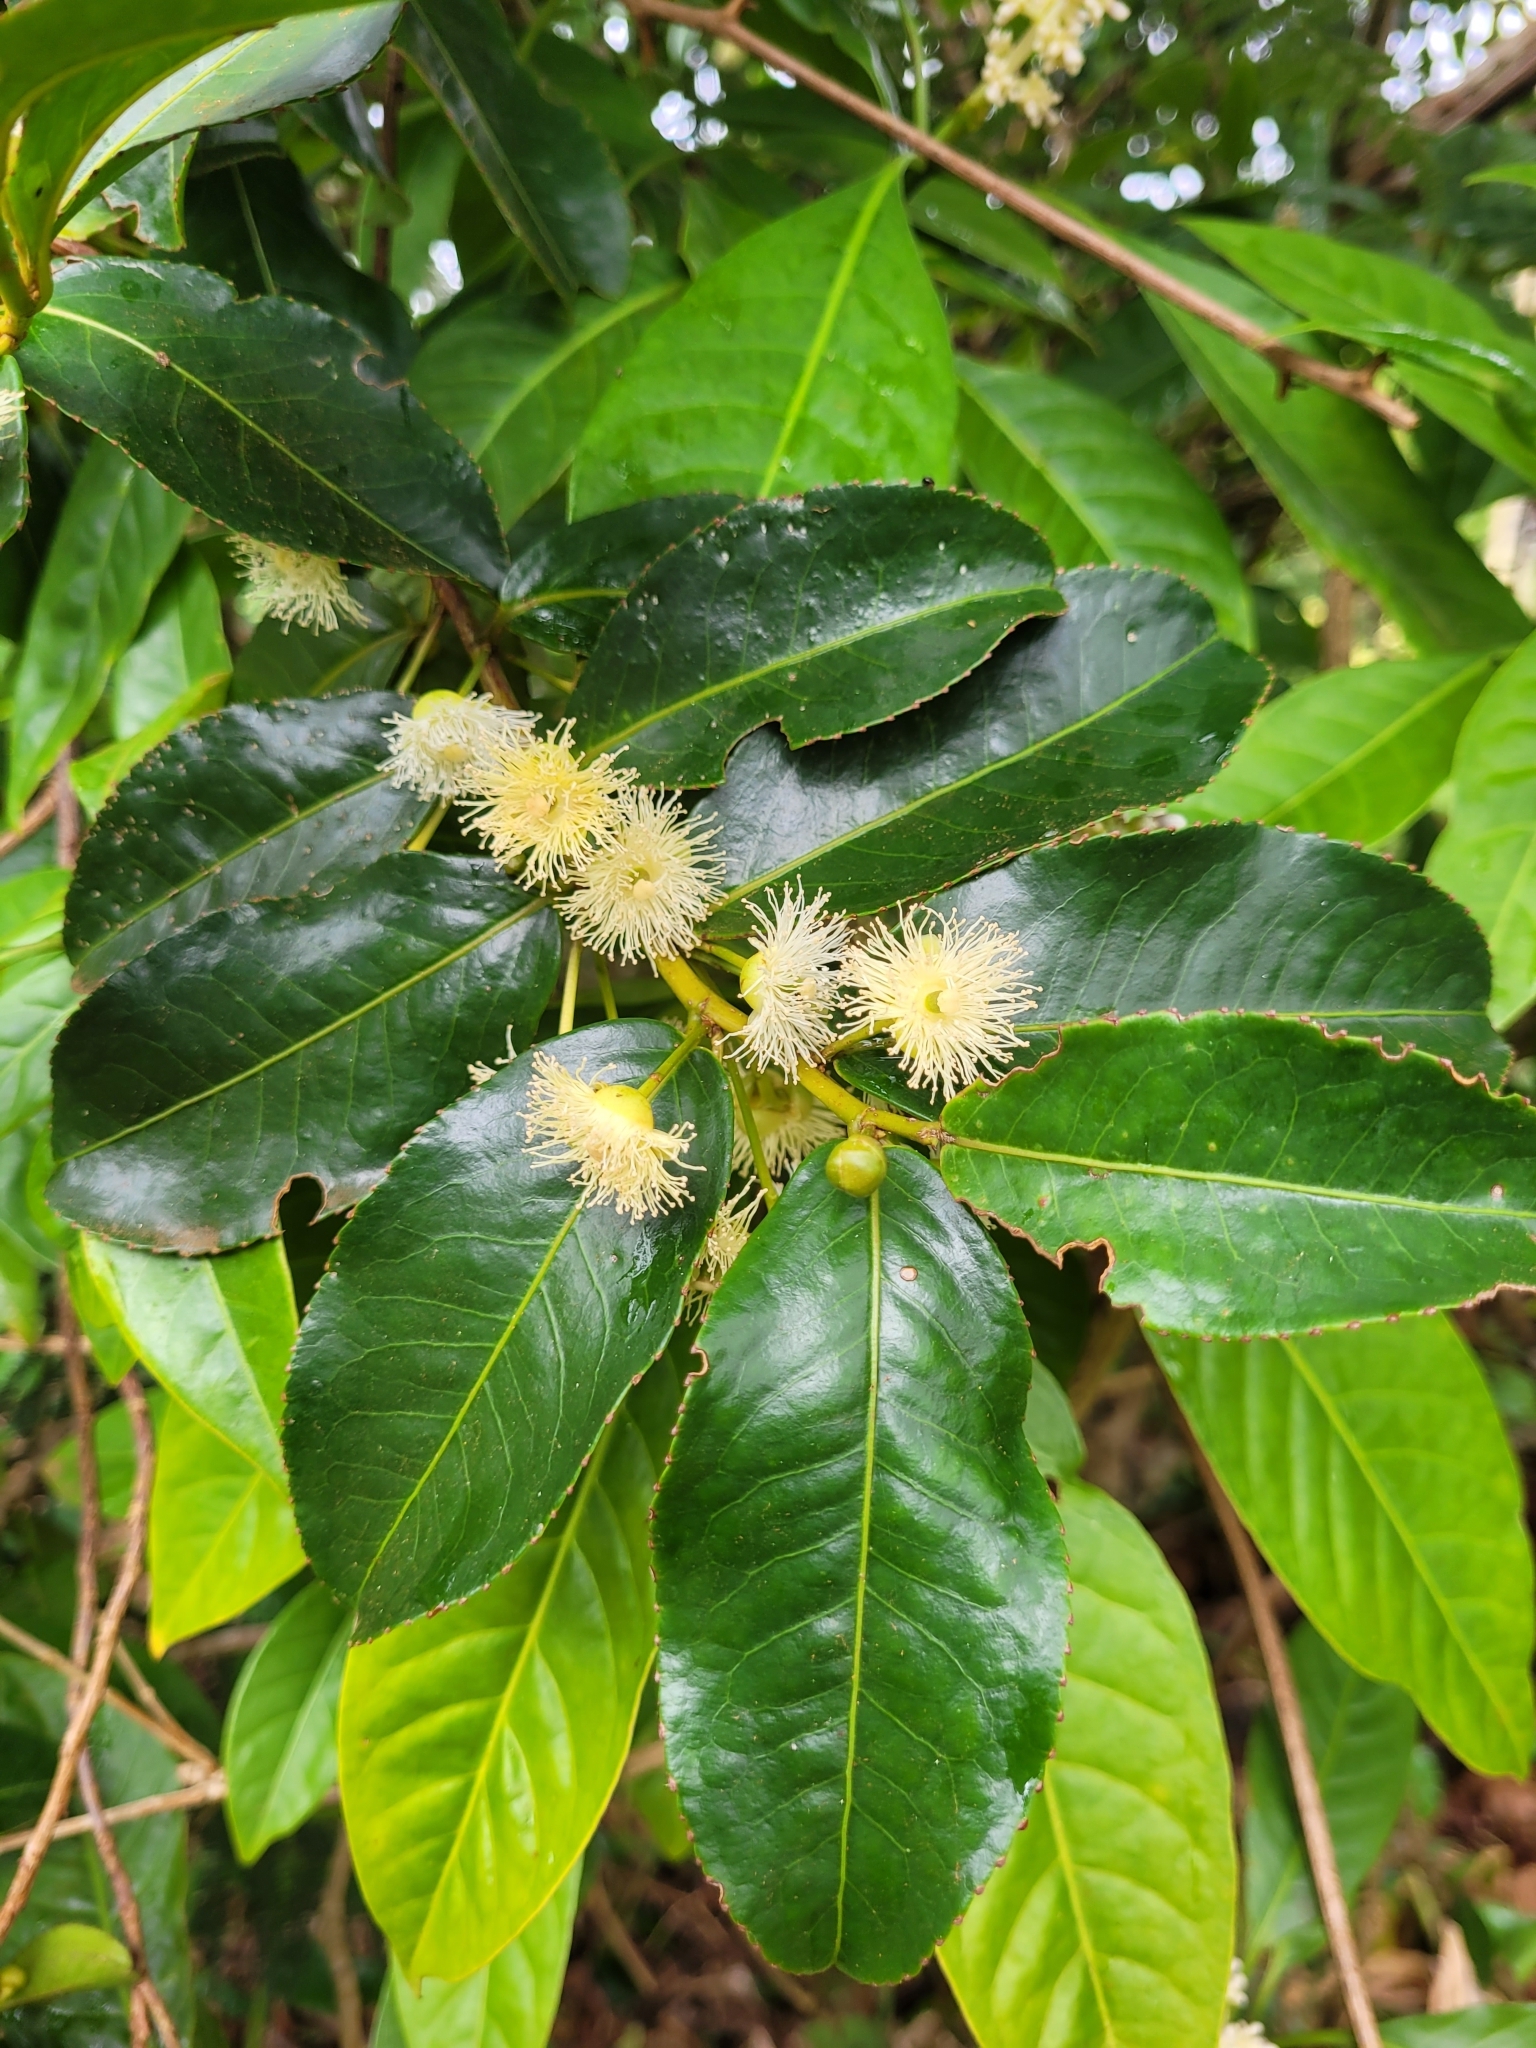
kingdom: Plantae
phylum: Tracheophyta
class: Magnoliopsida
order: Crossosomatales
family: Aphloiaceae
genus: Aphloia
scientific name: Aphloia theiformis
